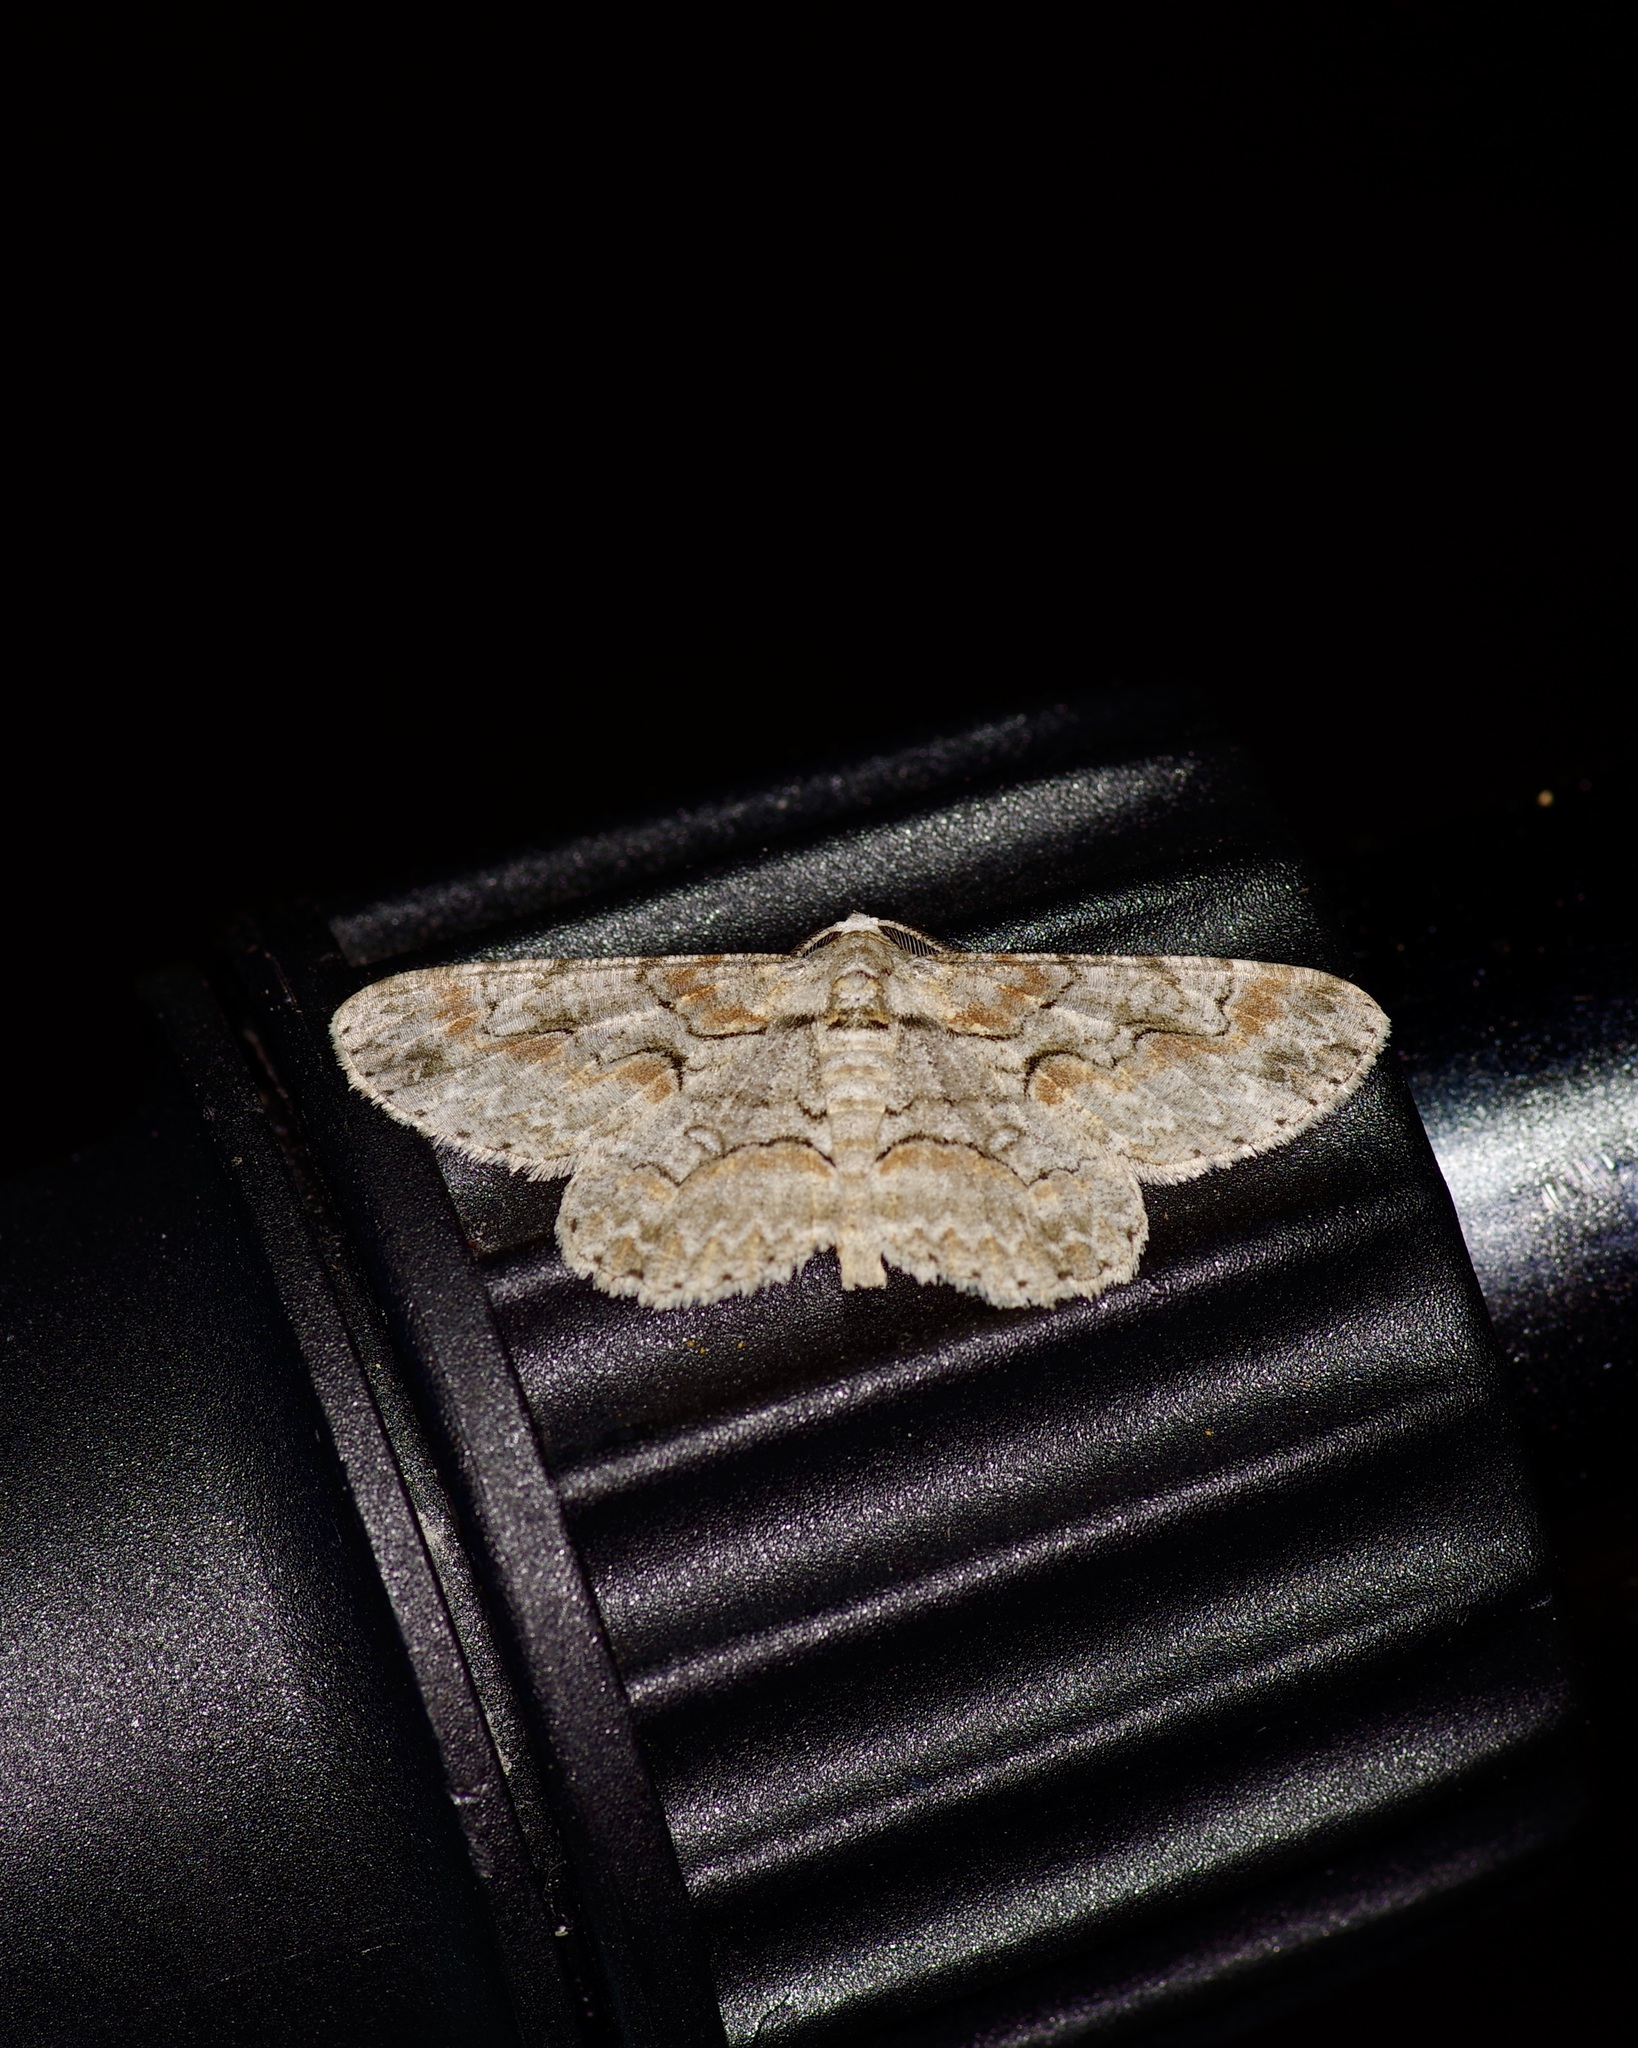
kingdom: Animalia
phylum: Arthropoda
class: Insecta
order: Lepidoptera
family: Geometridae
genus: Iridopsis
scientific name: Iridopsis defectaria
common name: Brown-shaded gray
